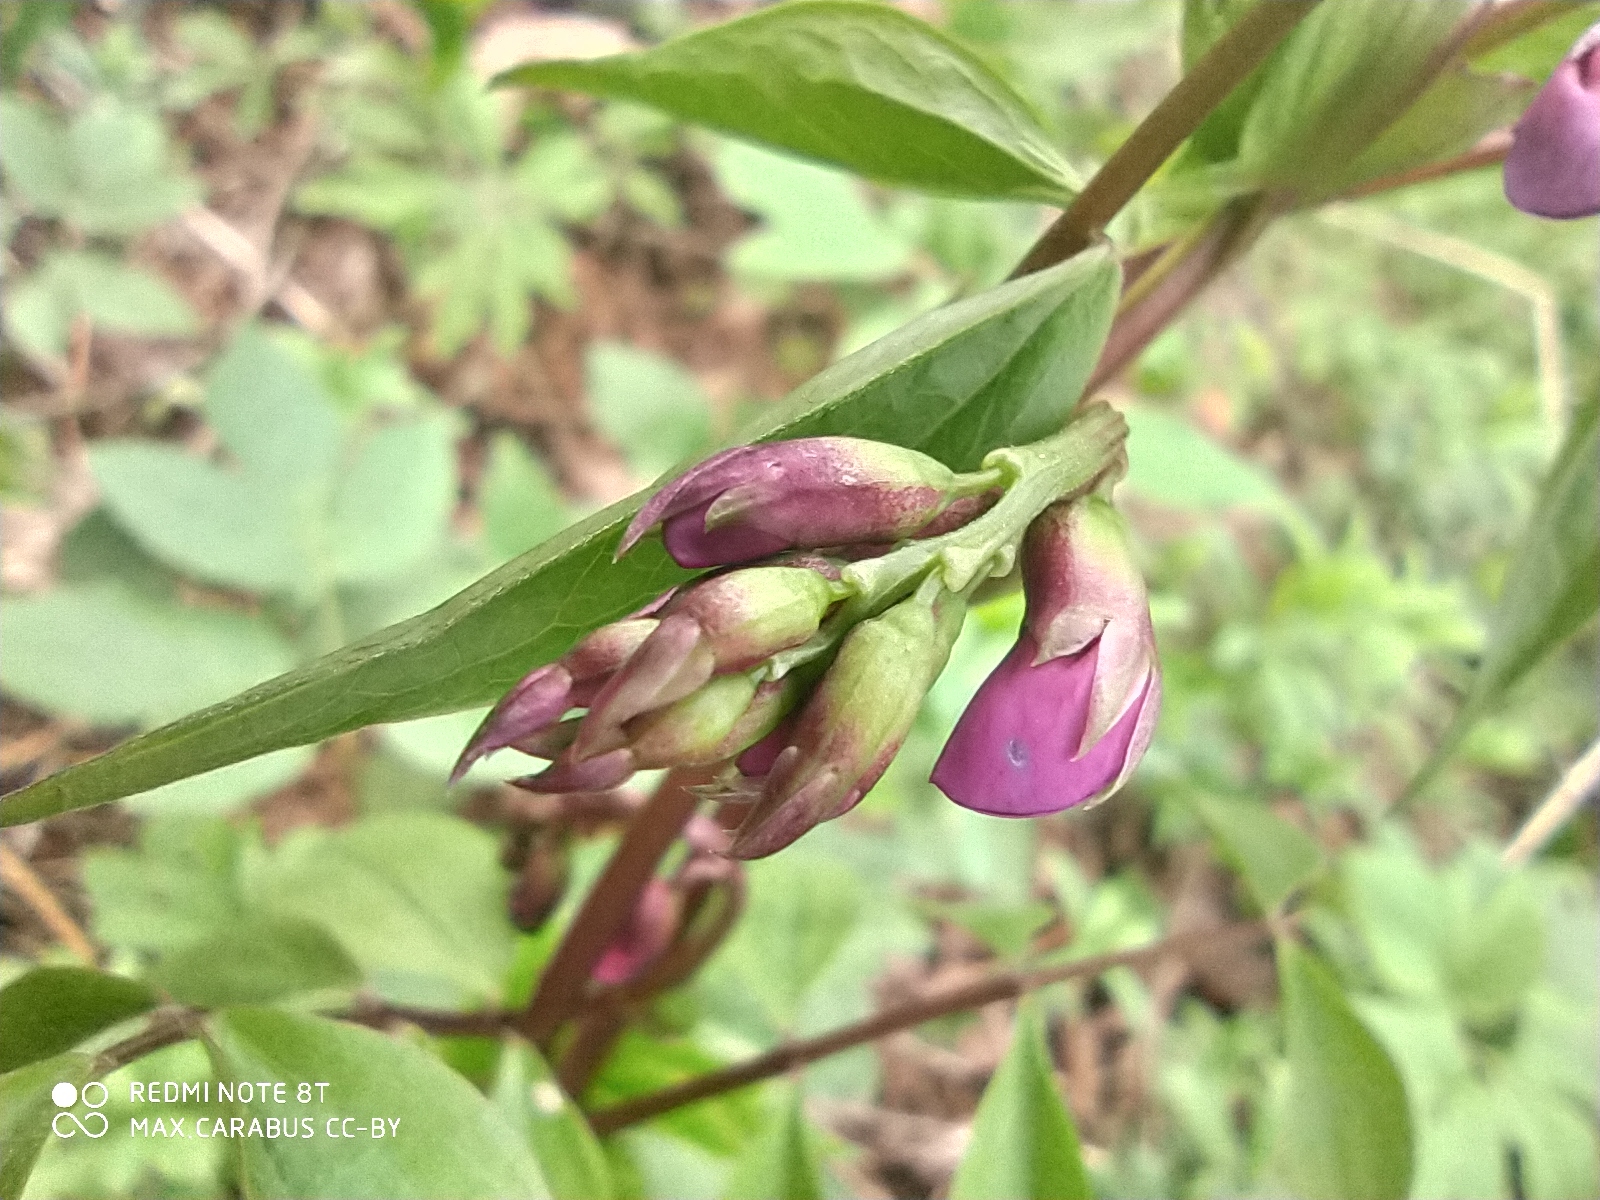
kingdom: Plantae
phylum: Tracheophyta
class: Magnoliopsida
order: Fabales
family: Fabaceae
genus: Lathyrus
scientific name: Lathyrus vernus
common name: Spring pea
